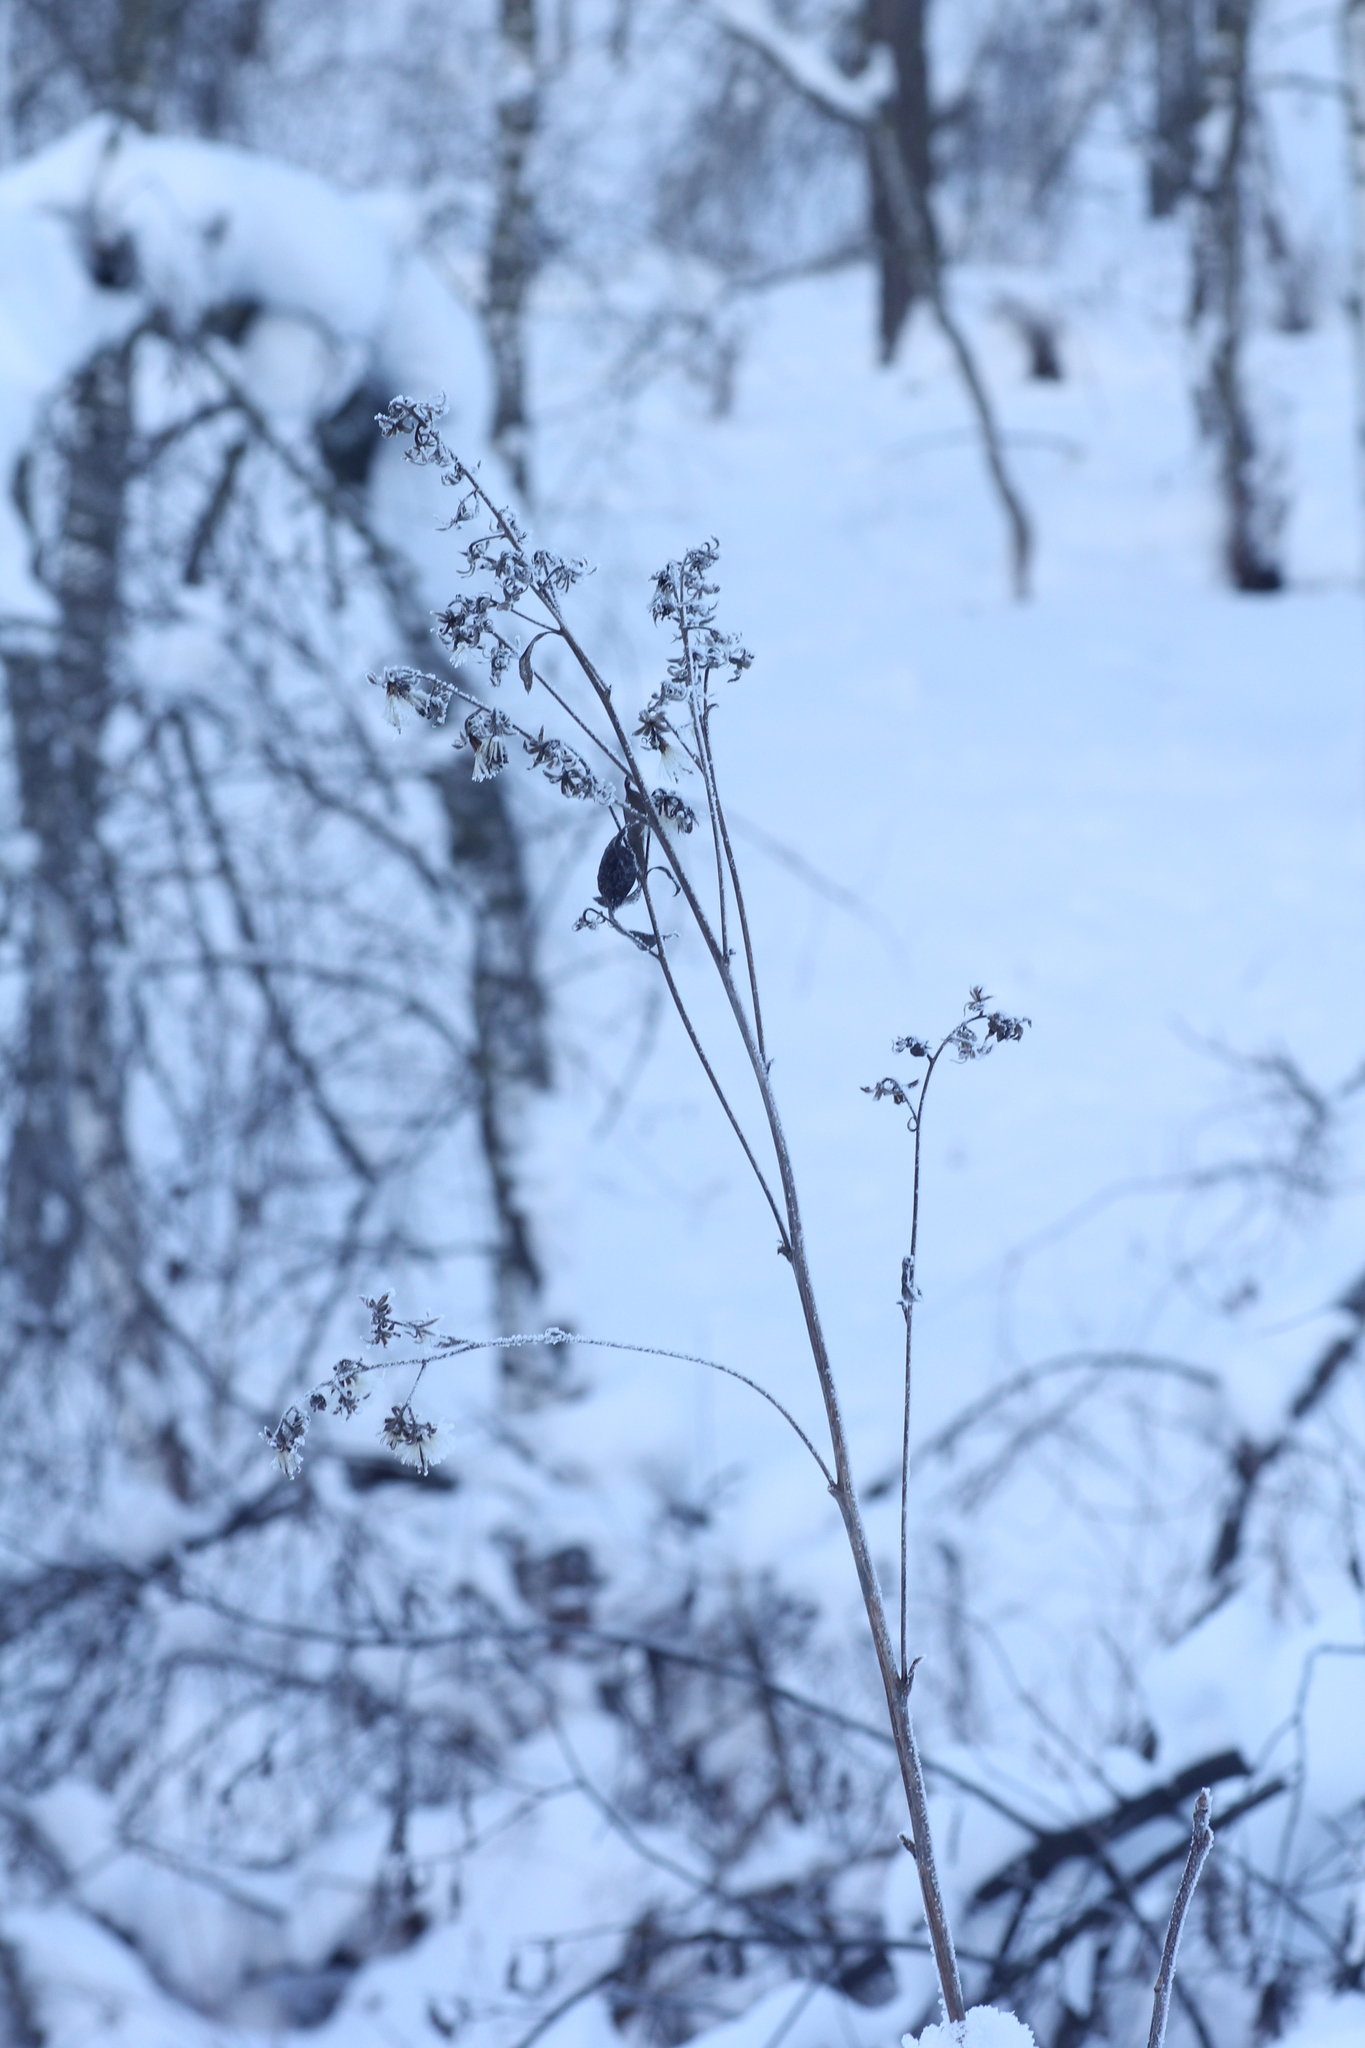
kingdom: Plantae
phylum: Tracheophyta
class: Magnoliopsida
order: Asterales
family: Asteraceae
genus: Parasenecio
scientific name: Parasenecio hastatus
